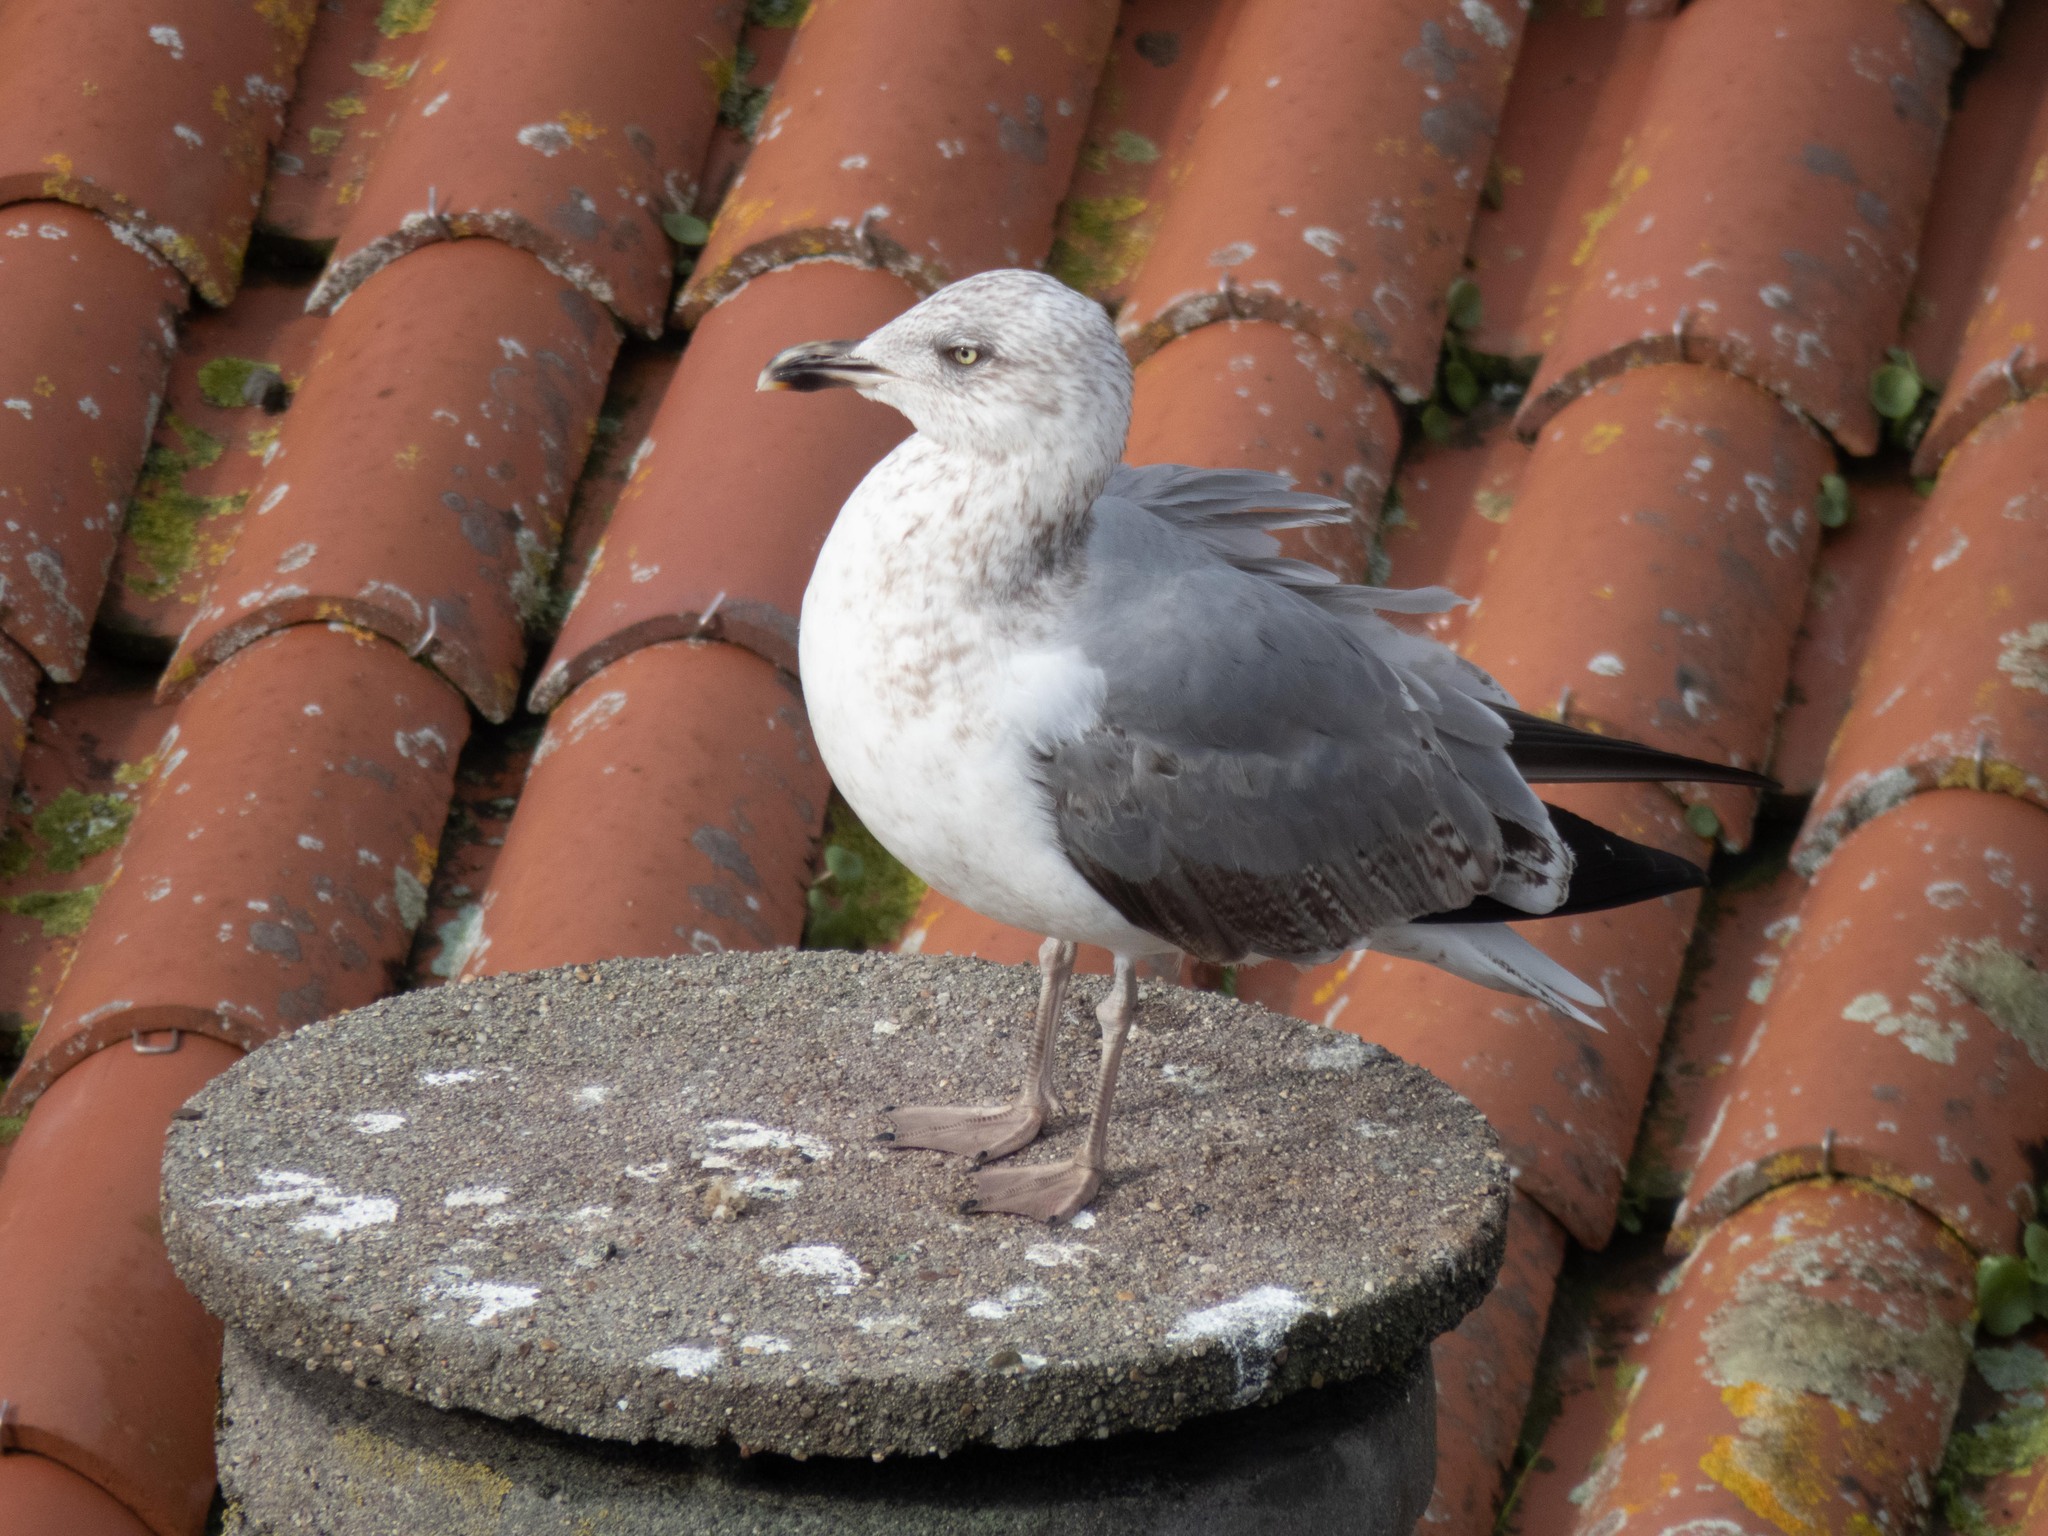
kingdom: Animalia
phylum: Chordata
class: Aves
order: Charadriiformes
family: Laridae
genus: Larus
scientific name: Larus michahellis
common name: Yellow-legged gull
